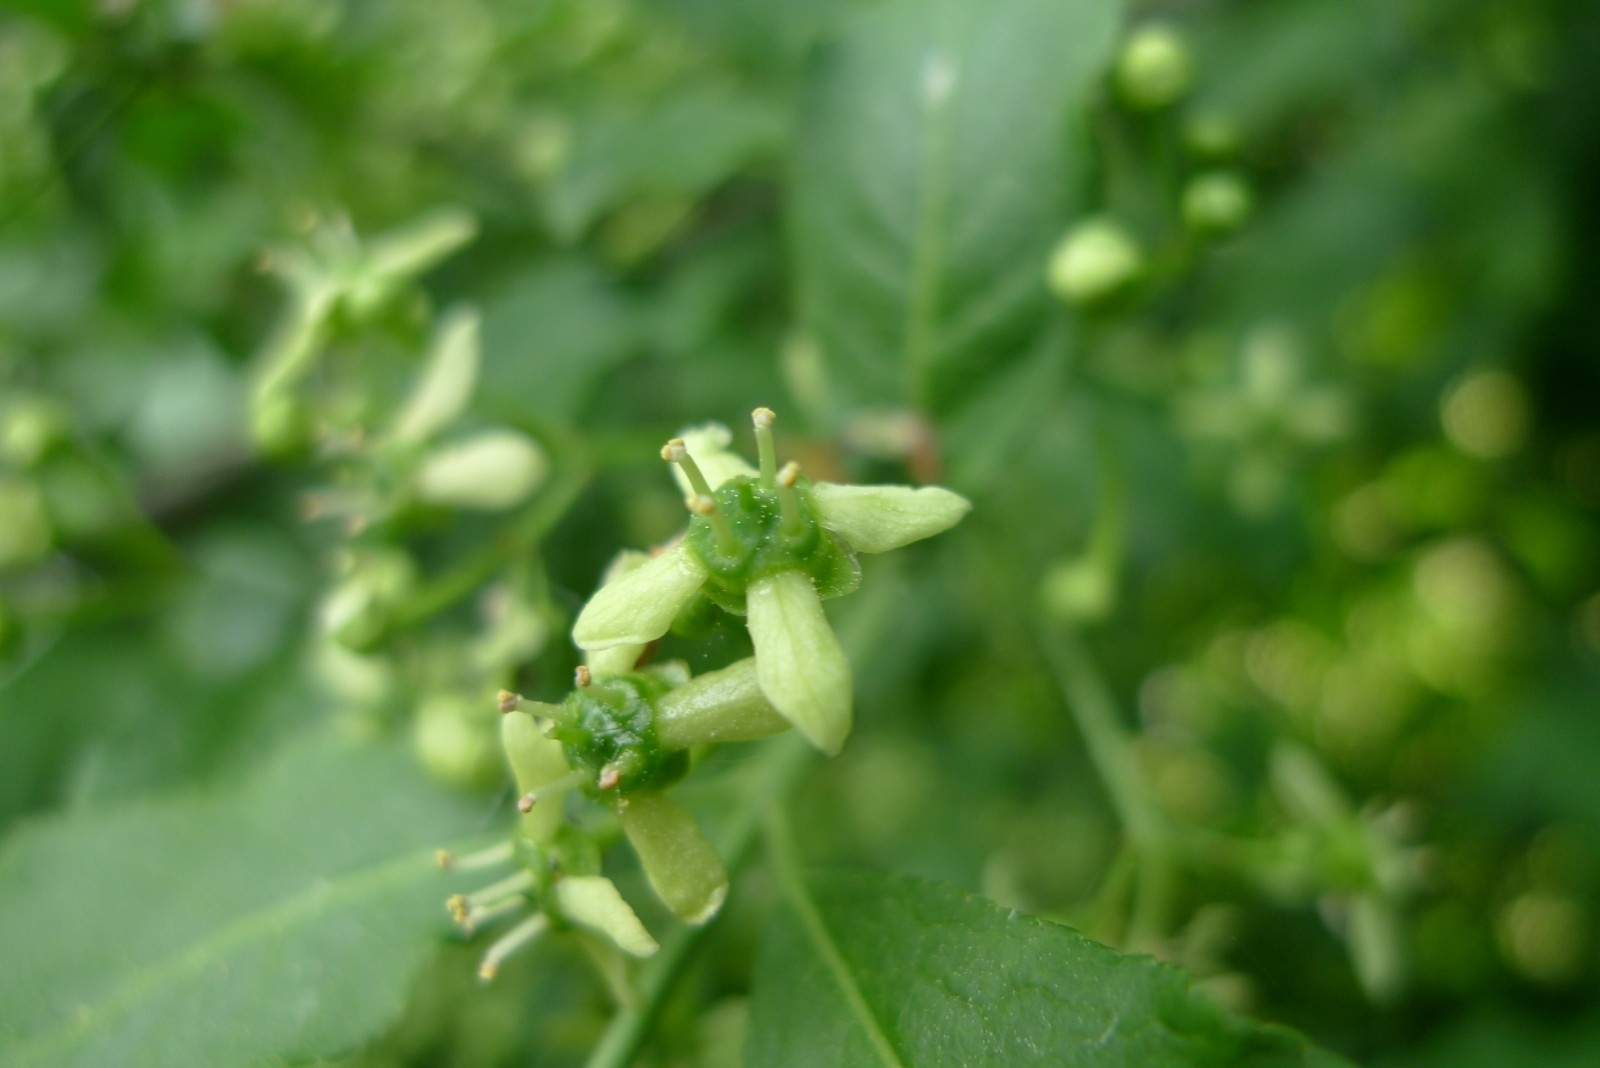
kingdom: Plantae
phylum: Tracheophyta
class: Magnoliopsida
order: Celastrales
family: Celastraceae
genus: Euonymus
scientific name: Euonymus europaeus
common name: Spindle
